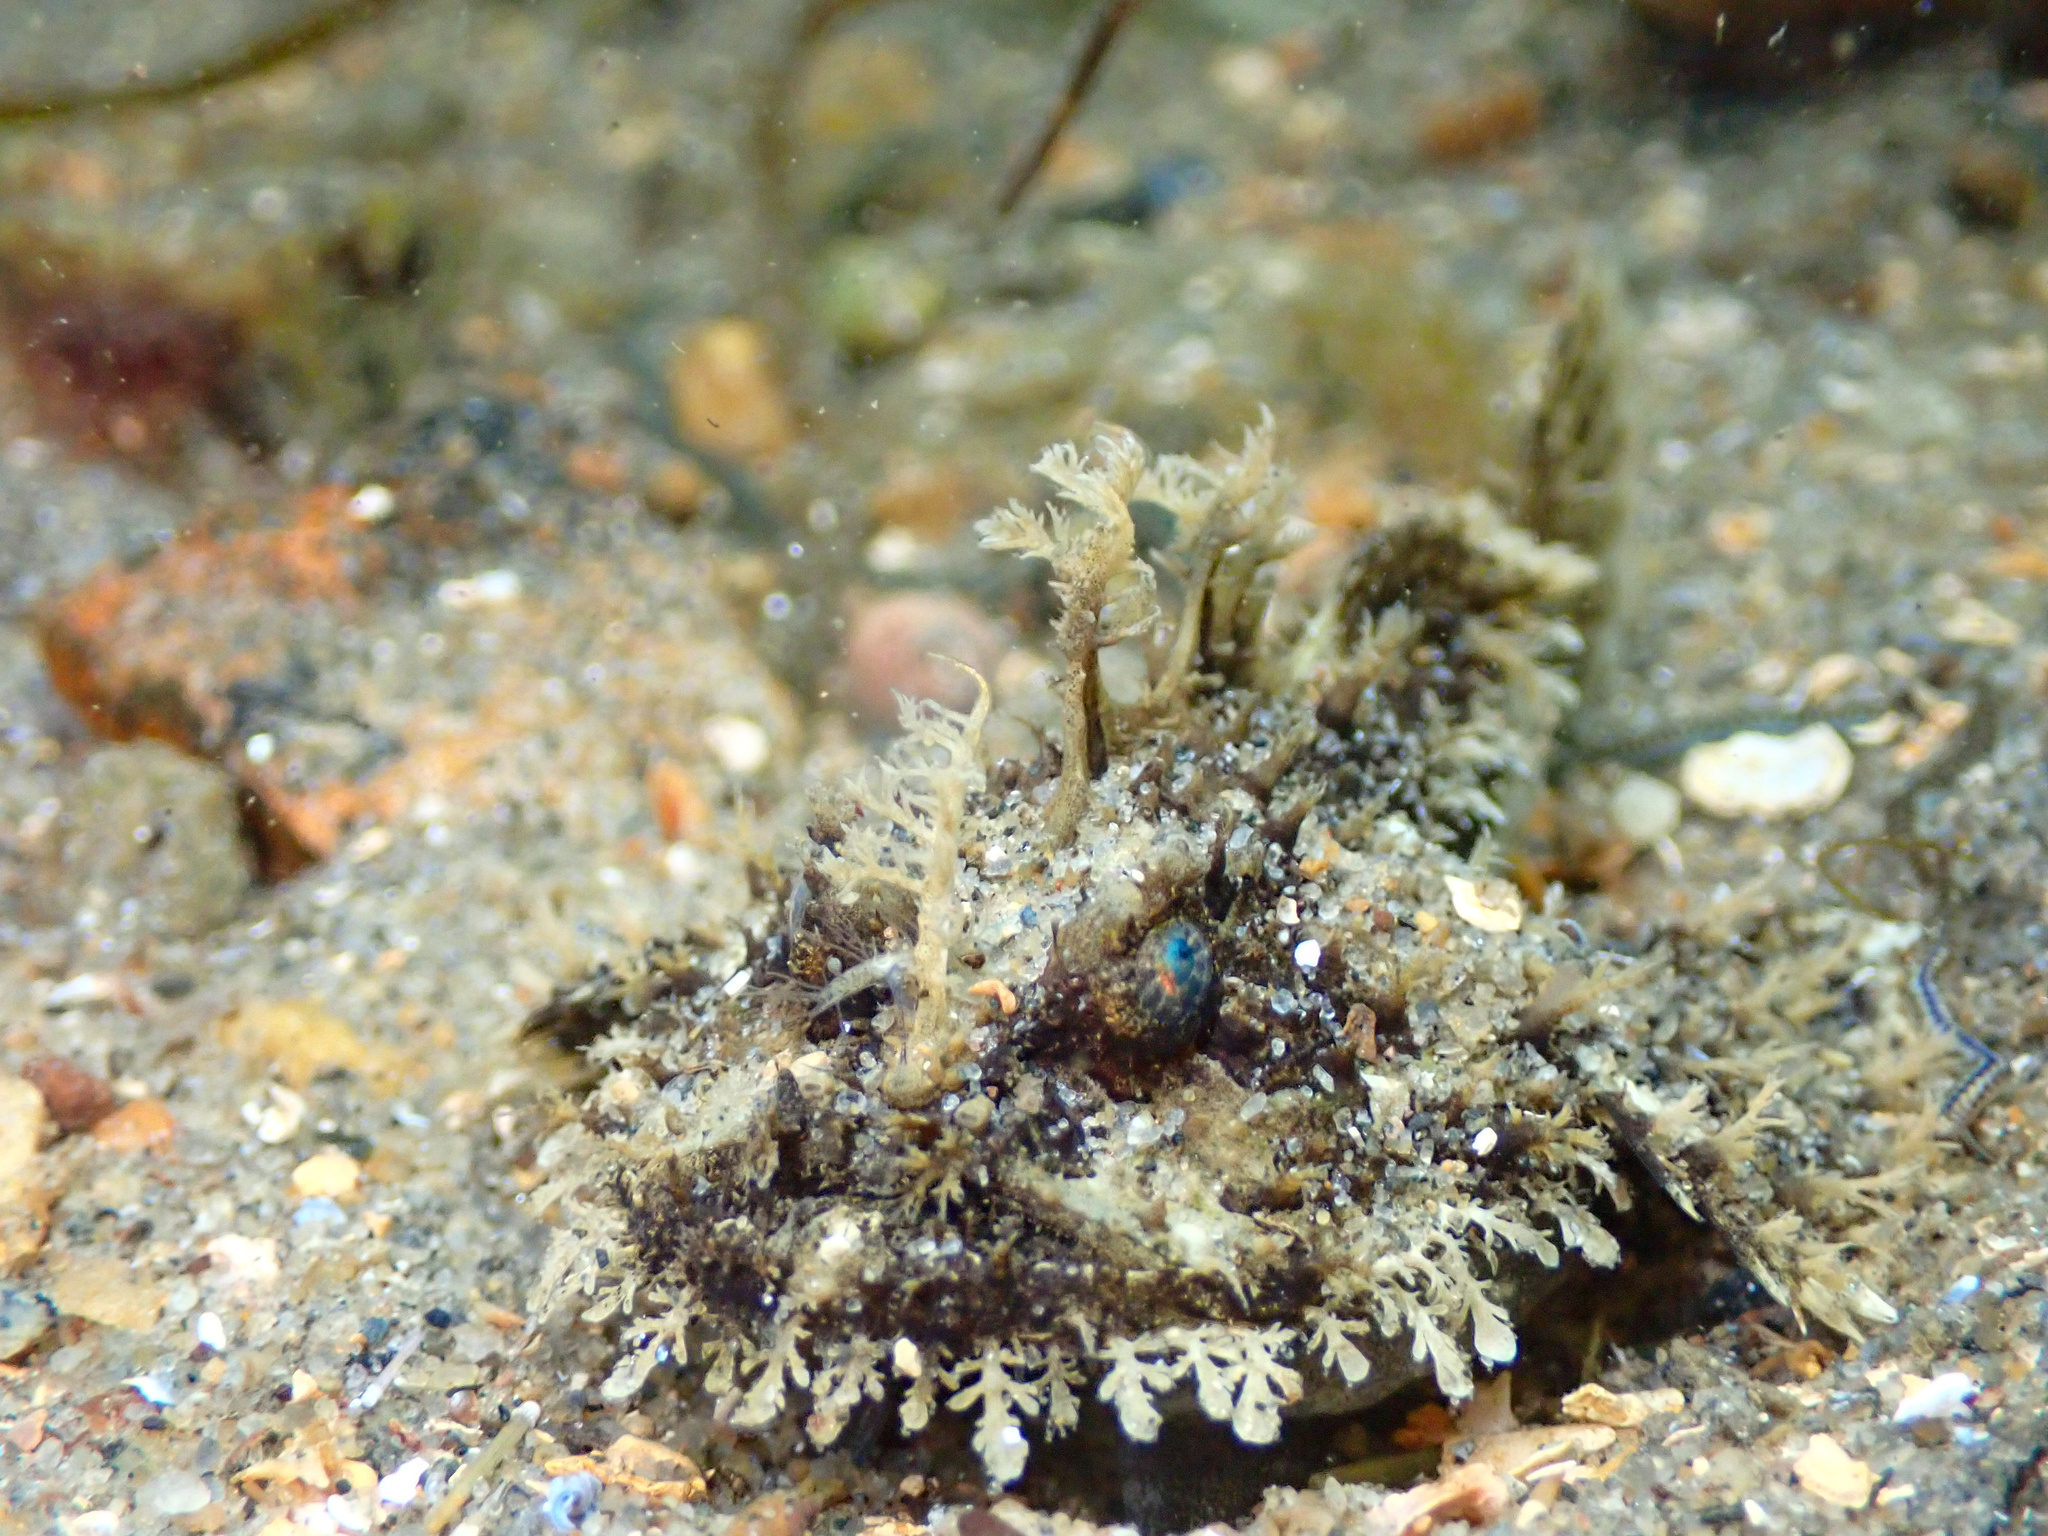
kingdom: Animalia
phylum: Chordata
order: Lophiiformes
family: Lophiidae
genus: Lophius
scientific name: Lophius piscatorius
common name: Angler
